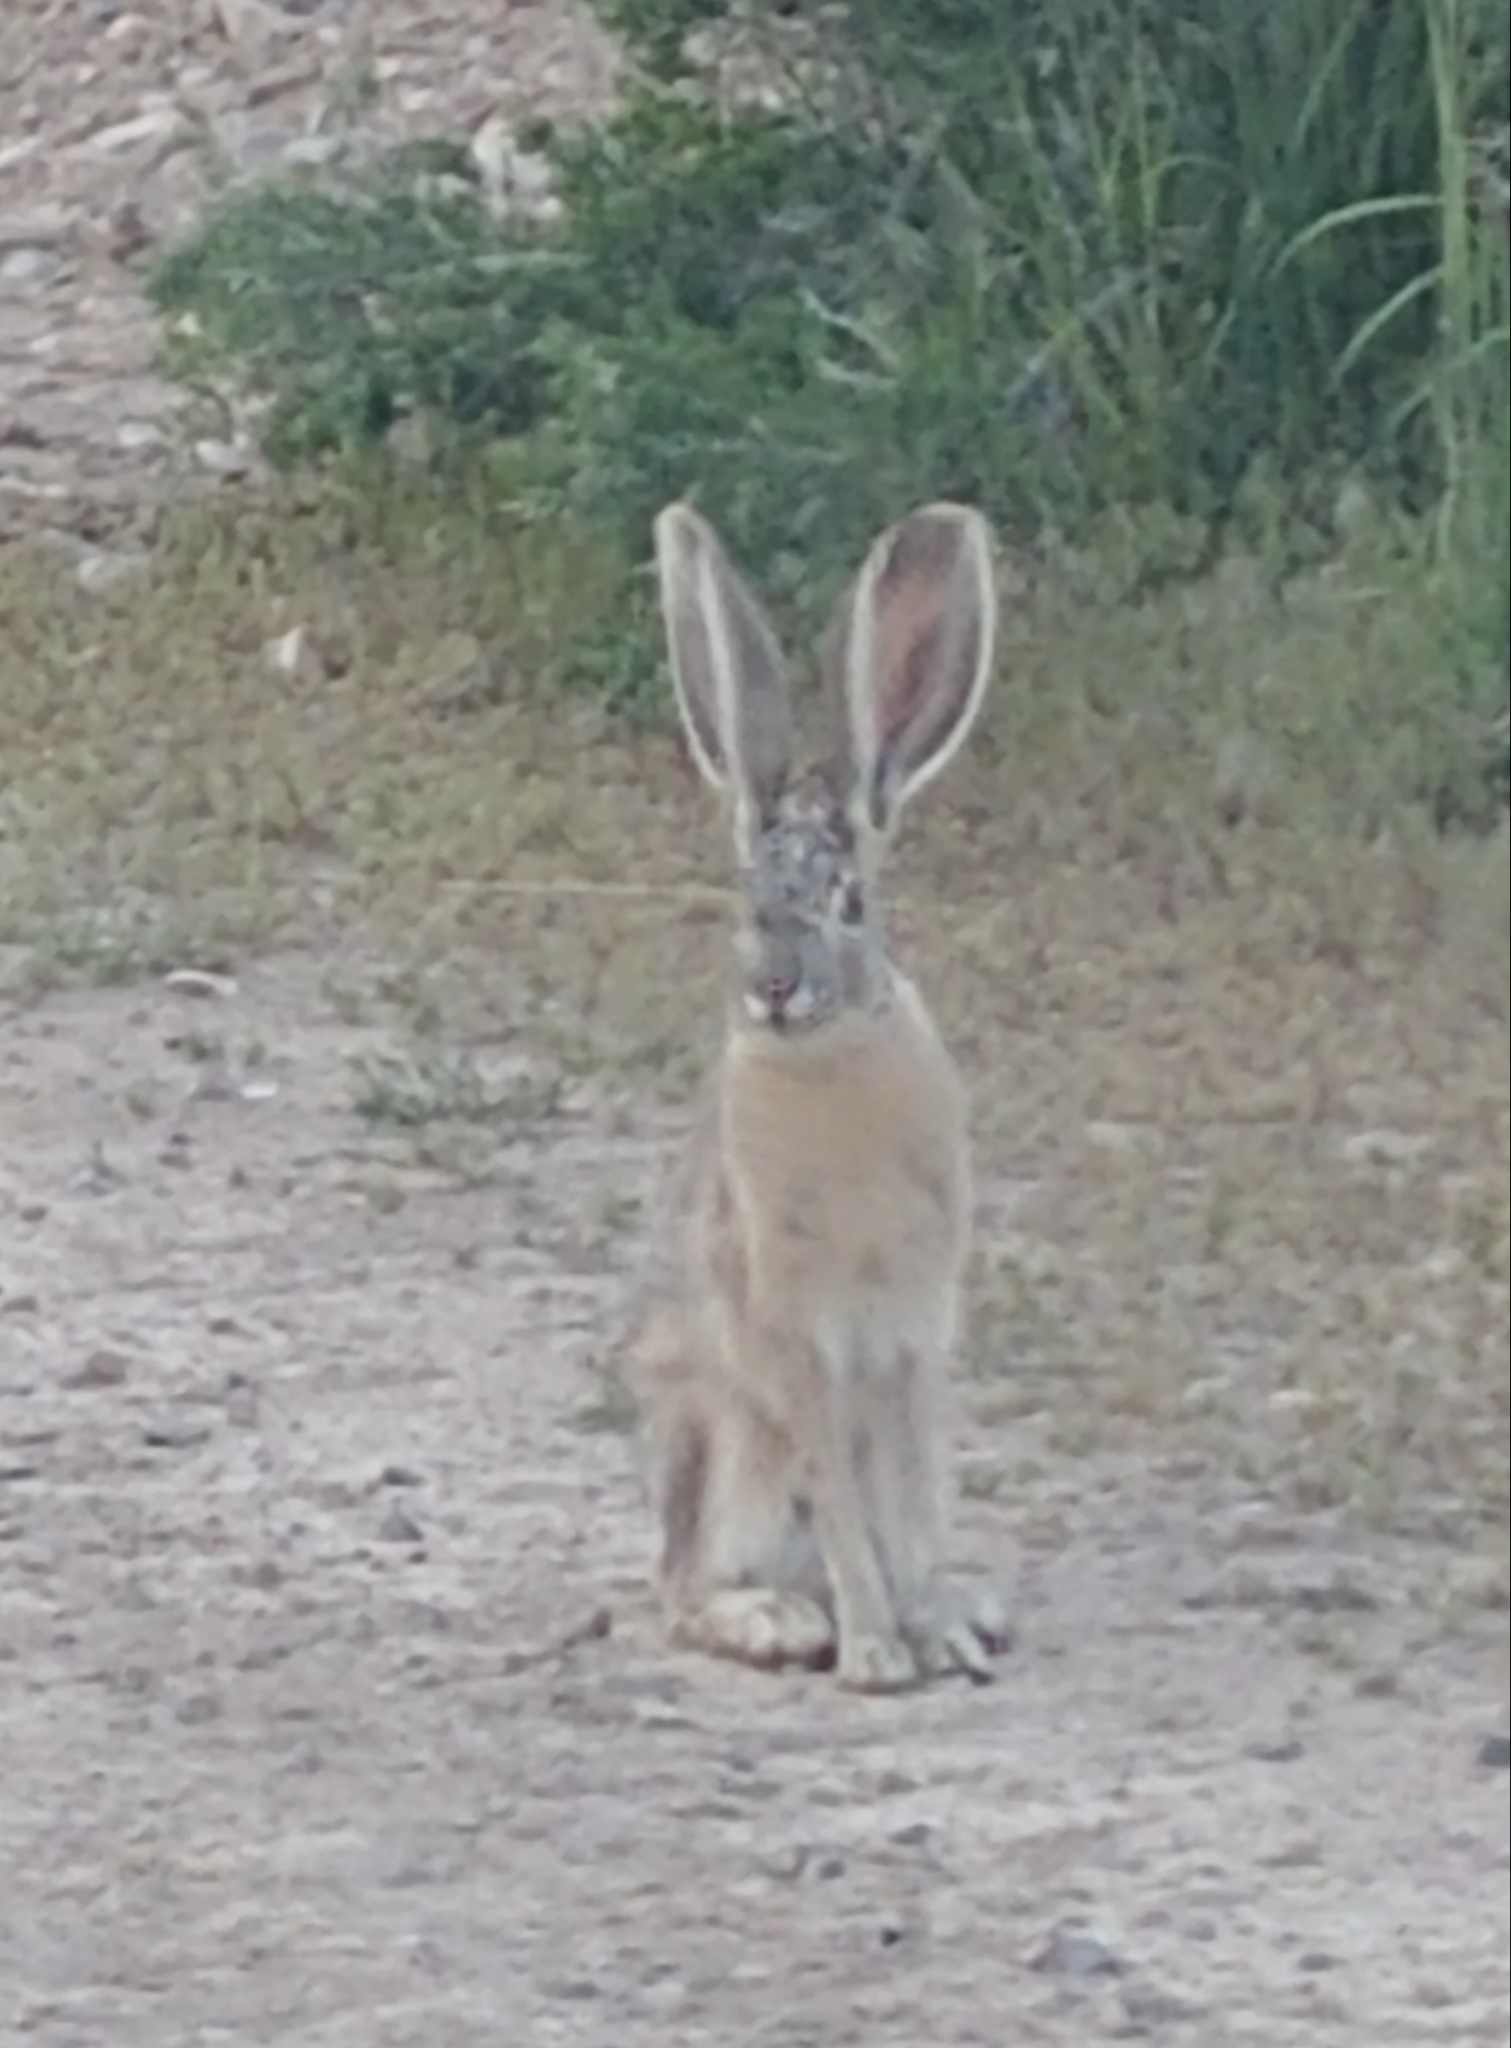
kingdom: Animalia
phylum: Chordata
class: Mammalia
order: Lagomorpha
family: Leporidae
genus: Lepus
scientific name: Lepus californicus
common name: Black-tailed jackrabbit
